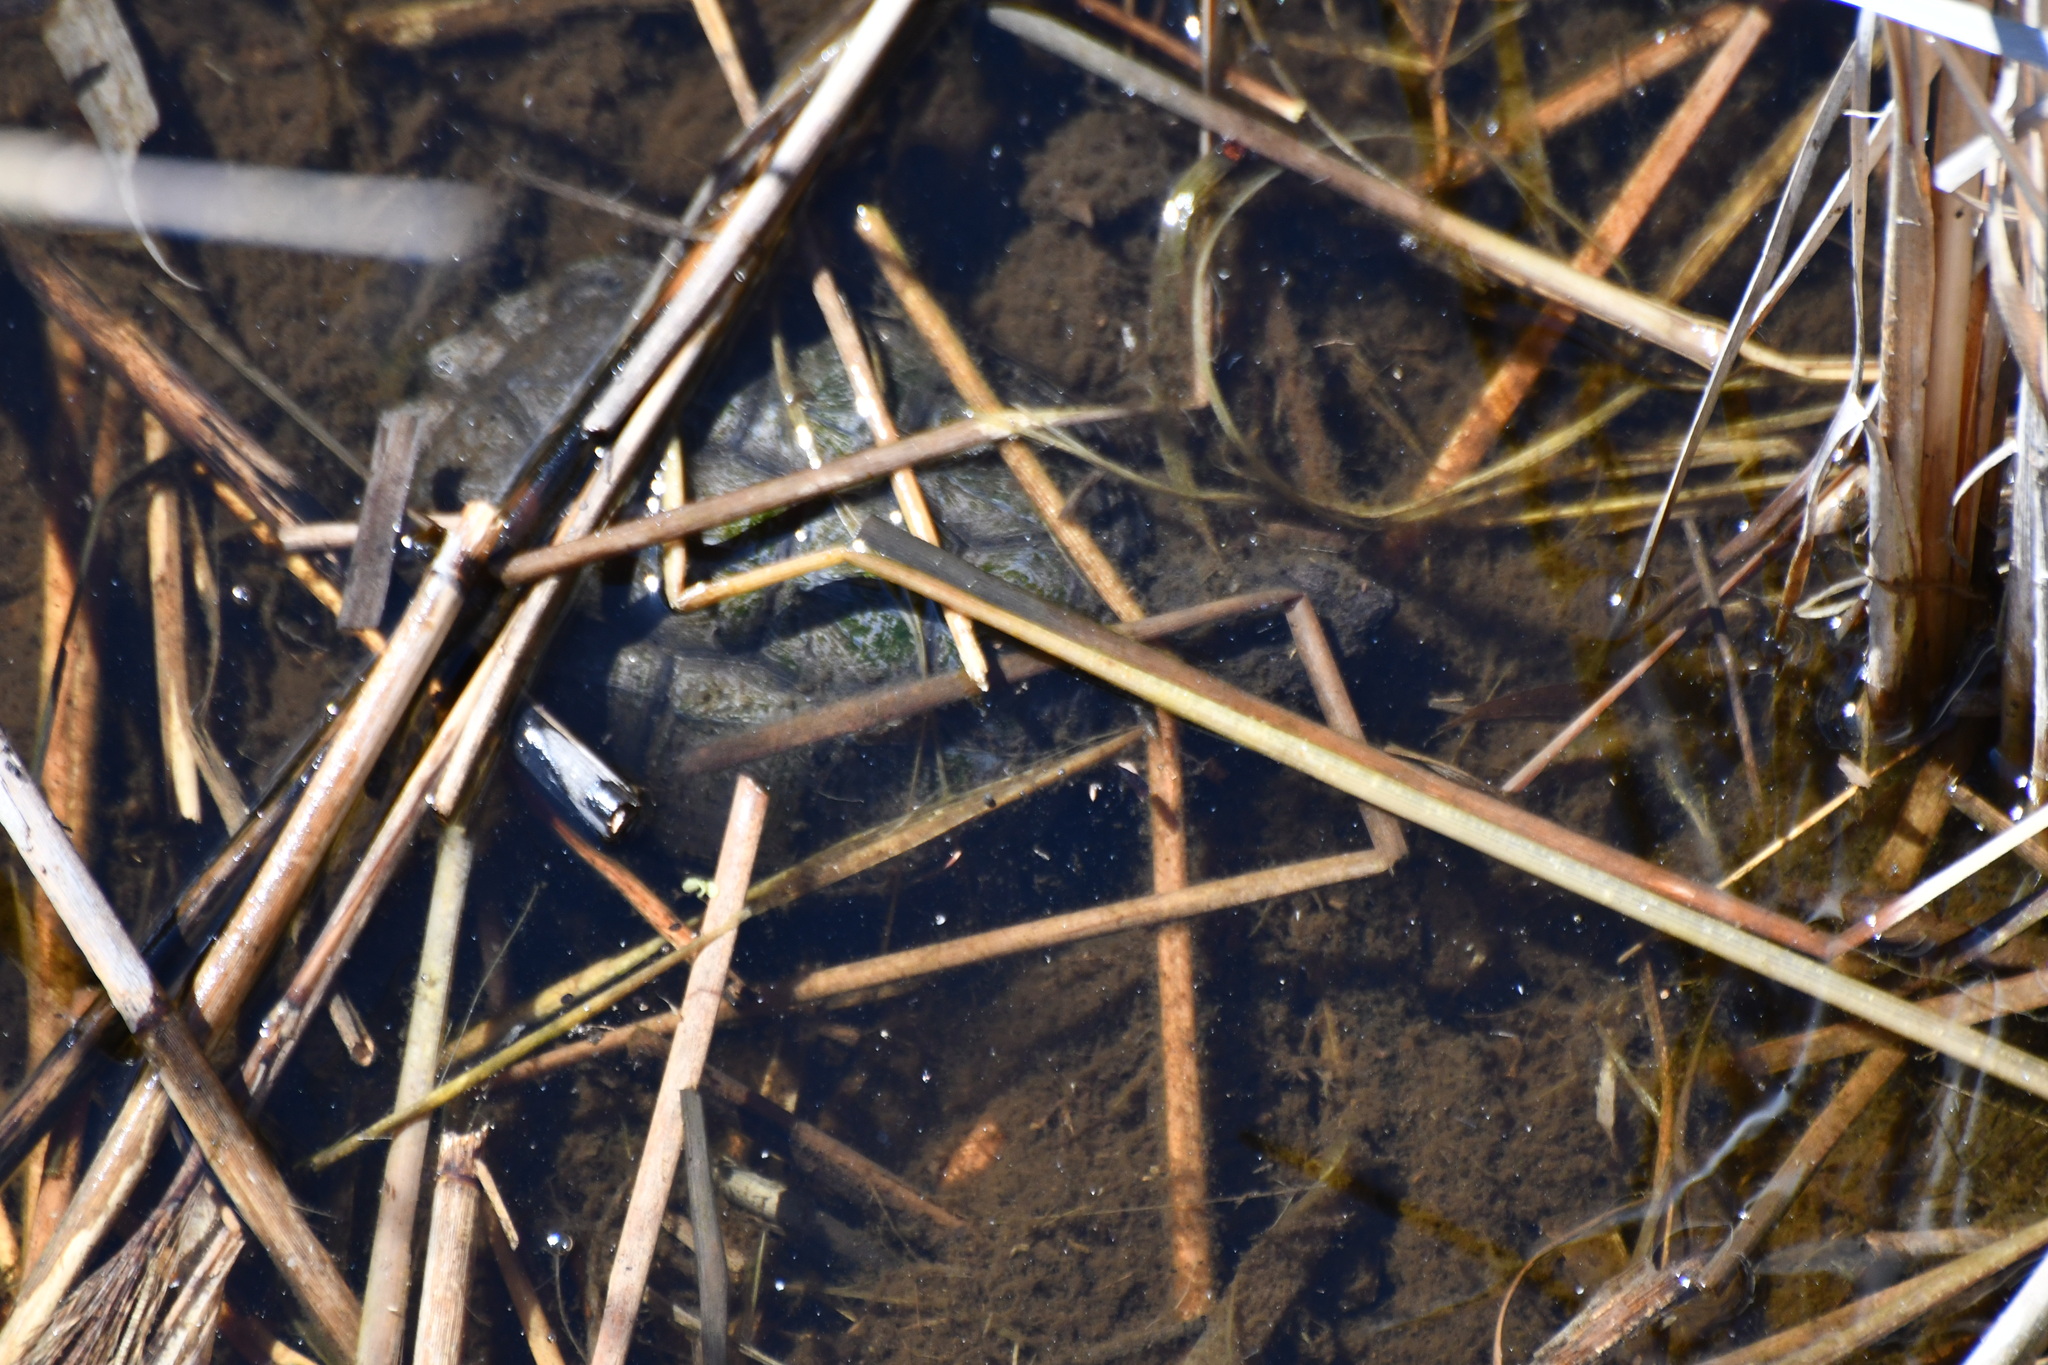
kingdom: Animalia
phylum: Chordata
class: Testudines
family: Chelydridae
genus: Chelydra
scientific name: Chelydra serpentina
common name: Common snapping turtle
